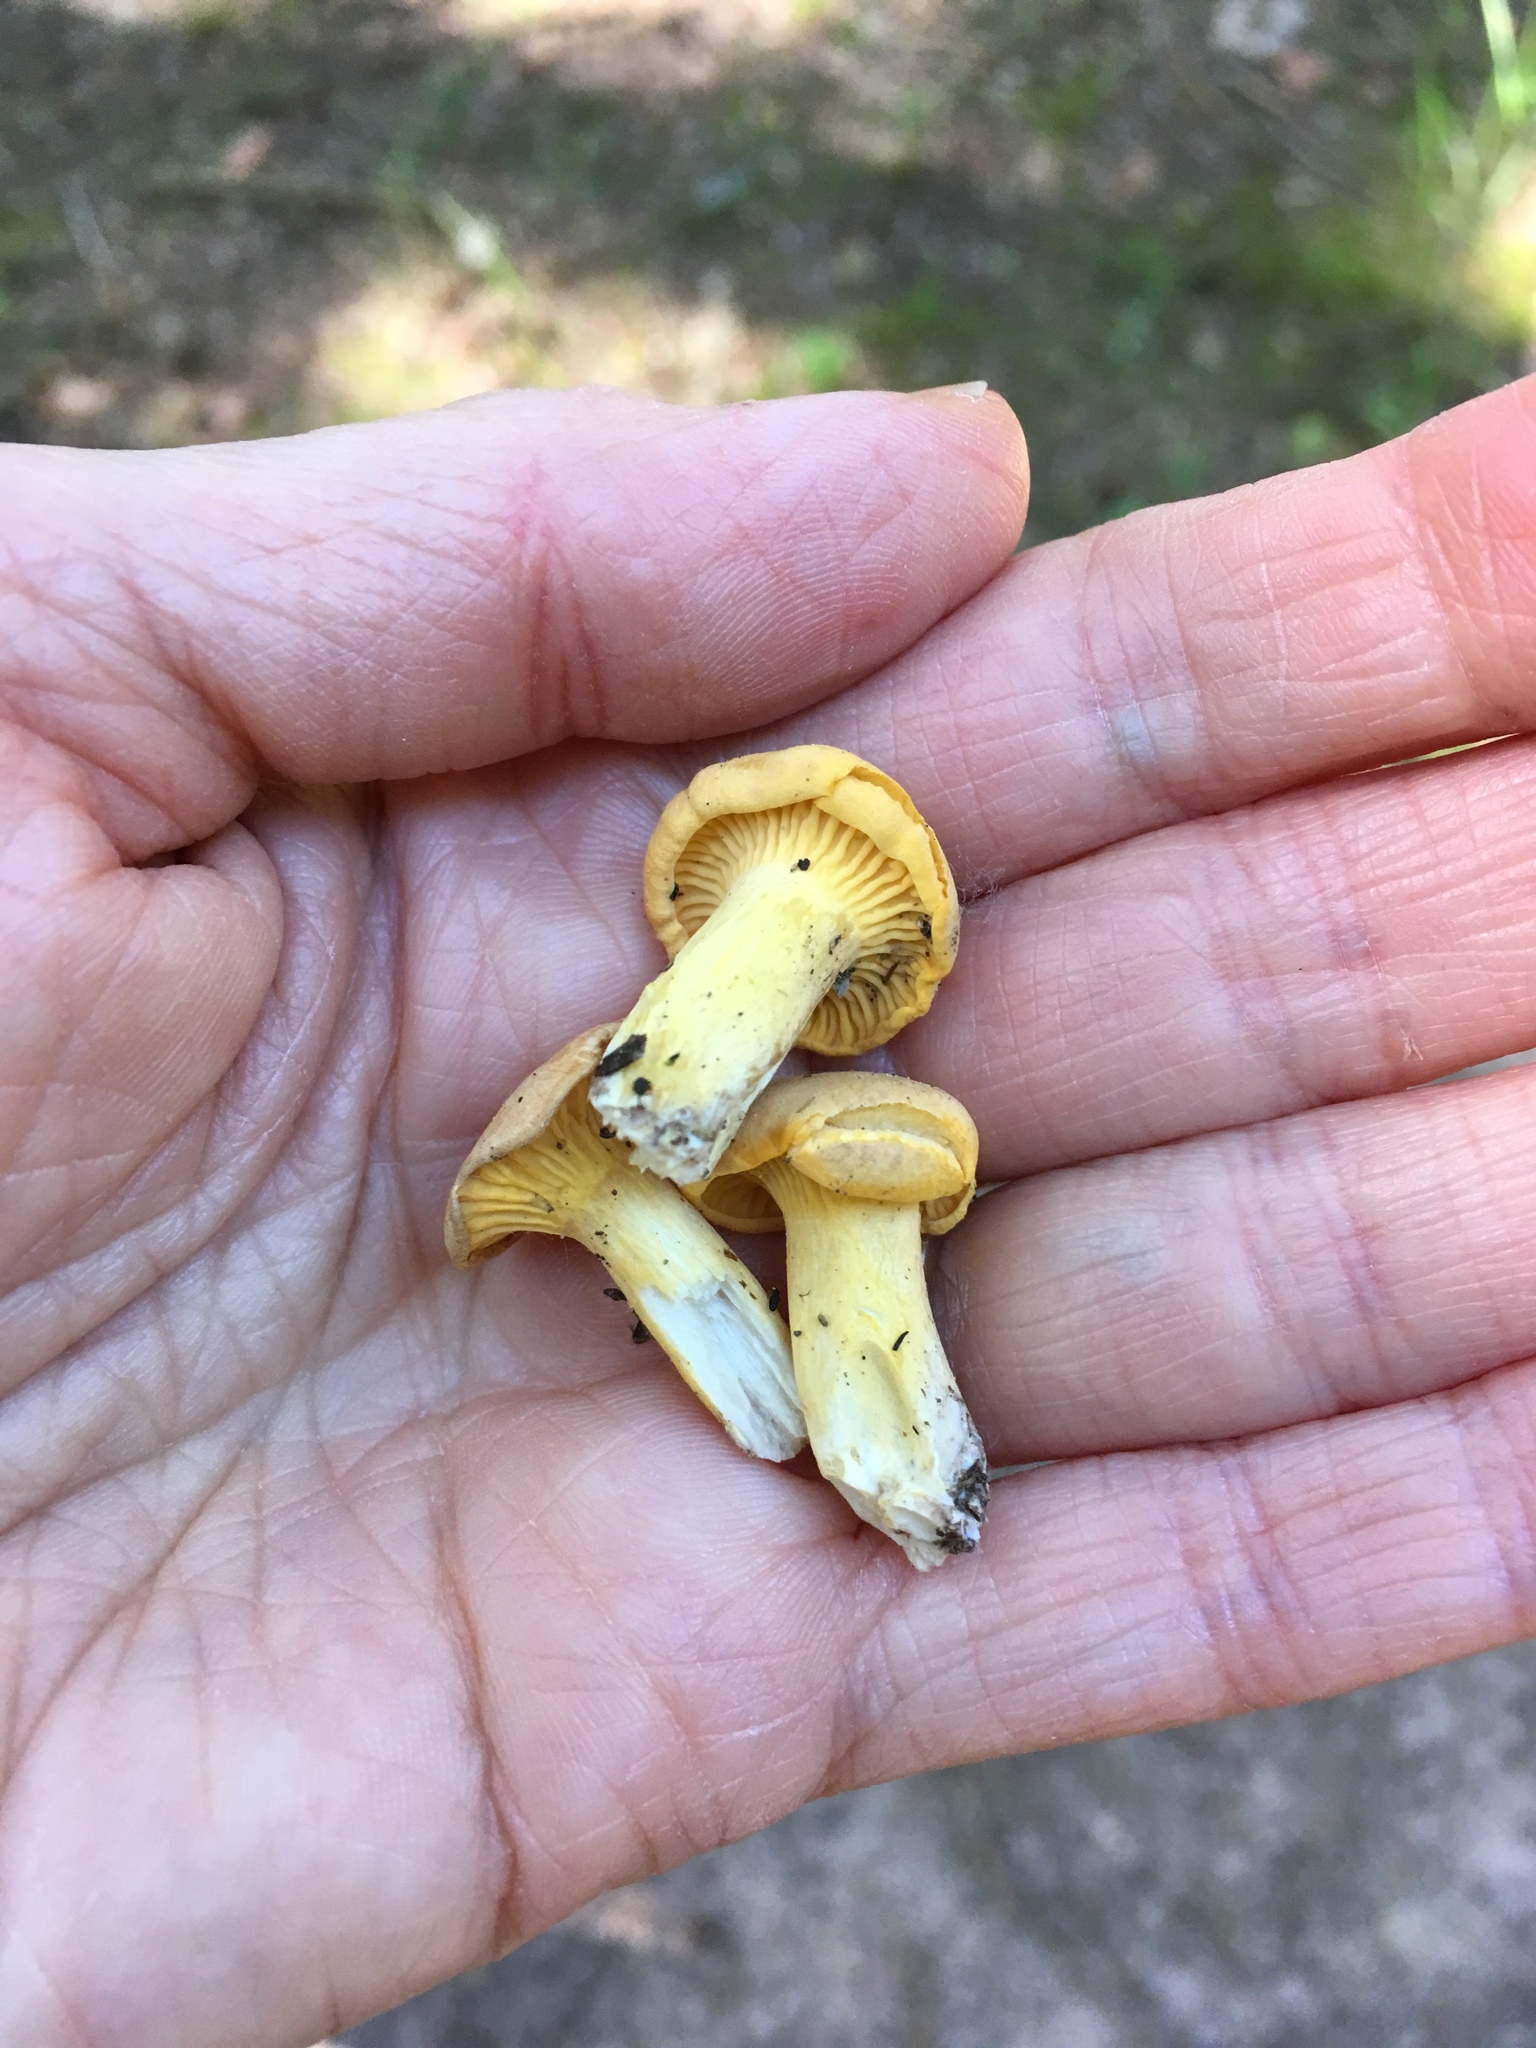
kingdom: Fungi
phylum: Basidiomycota
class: Agaricomycetes
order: Cantharellales
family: Hydnaceae
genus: Cantharellus
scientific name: Cantharellus cibarius
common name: Chanterelle
